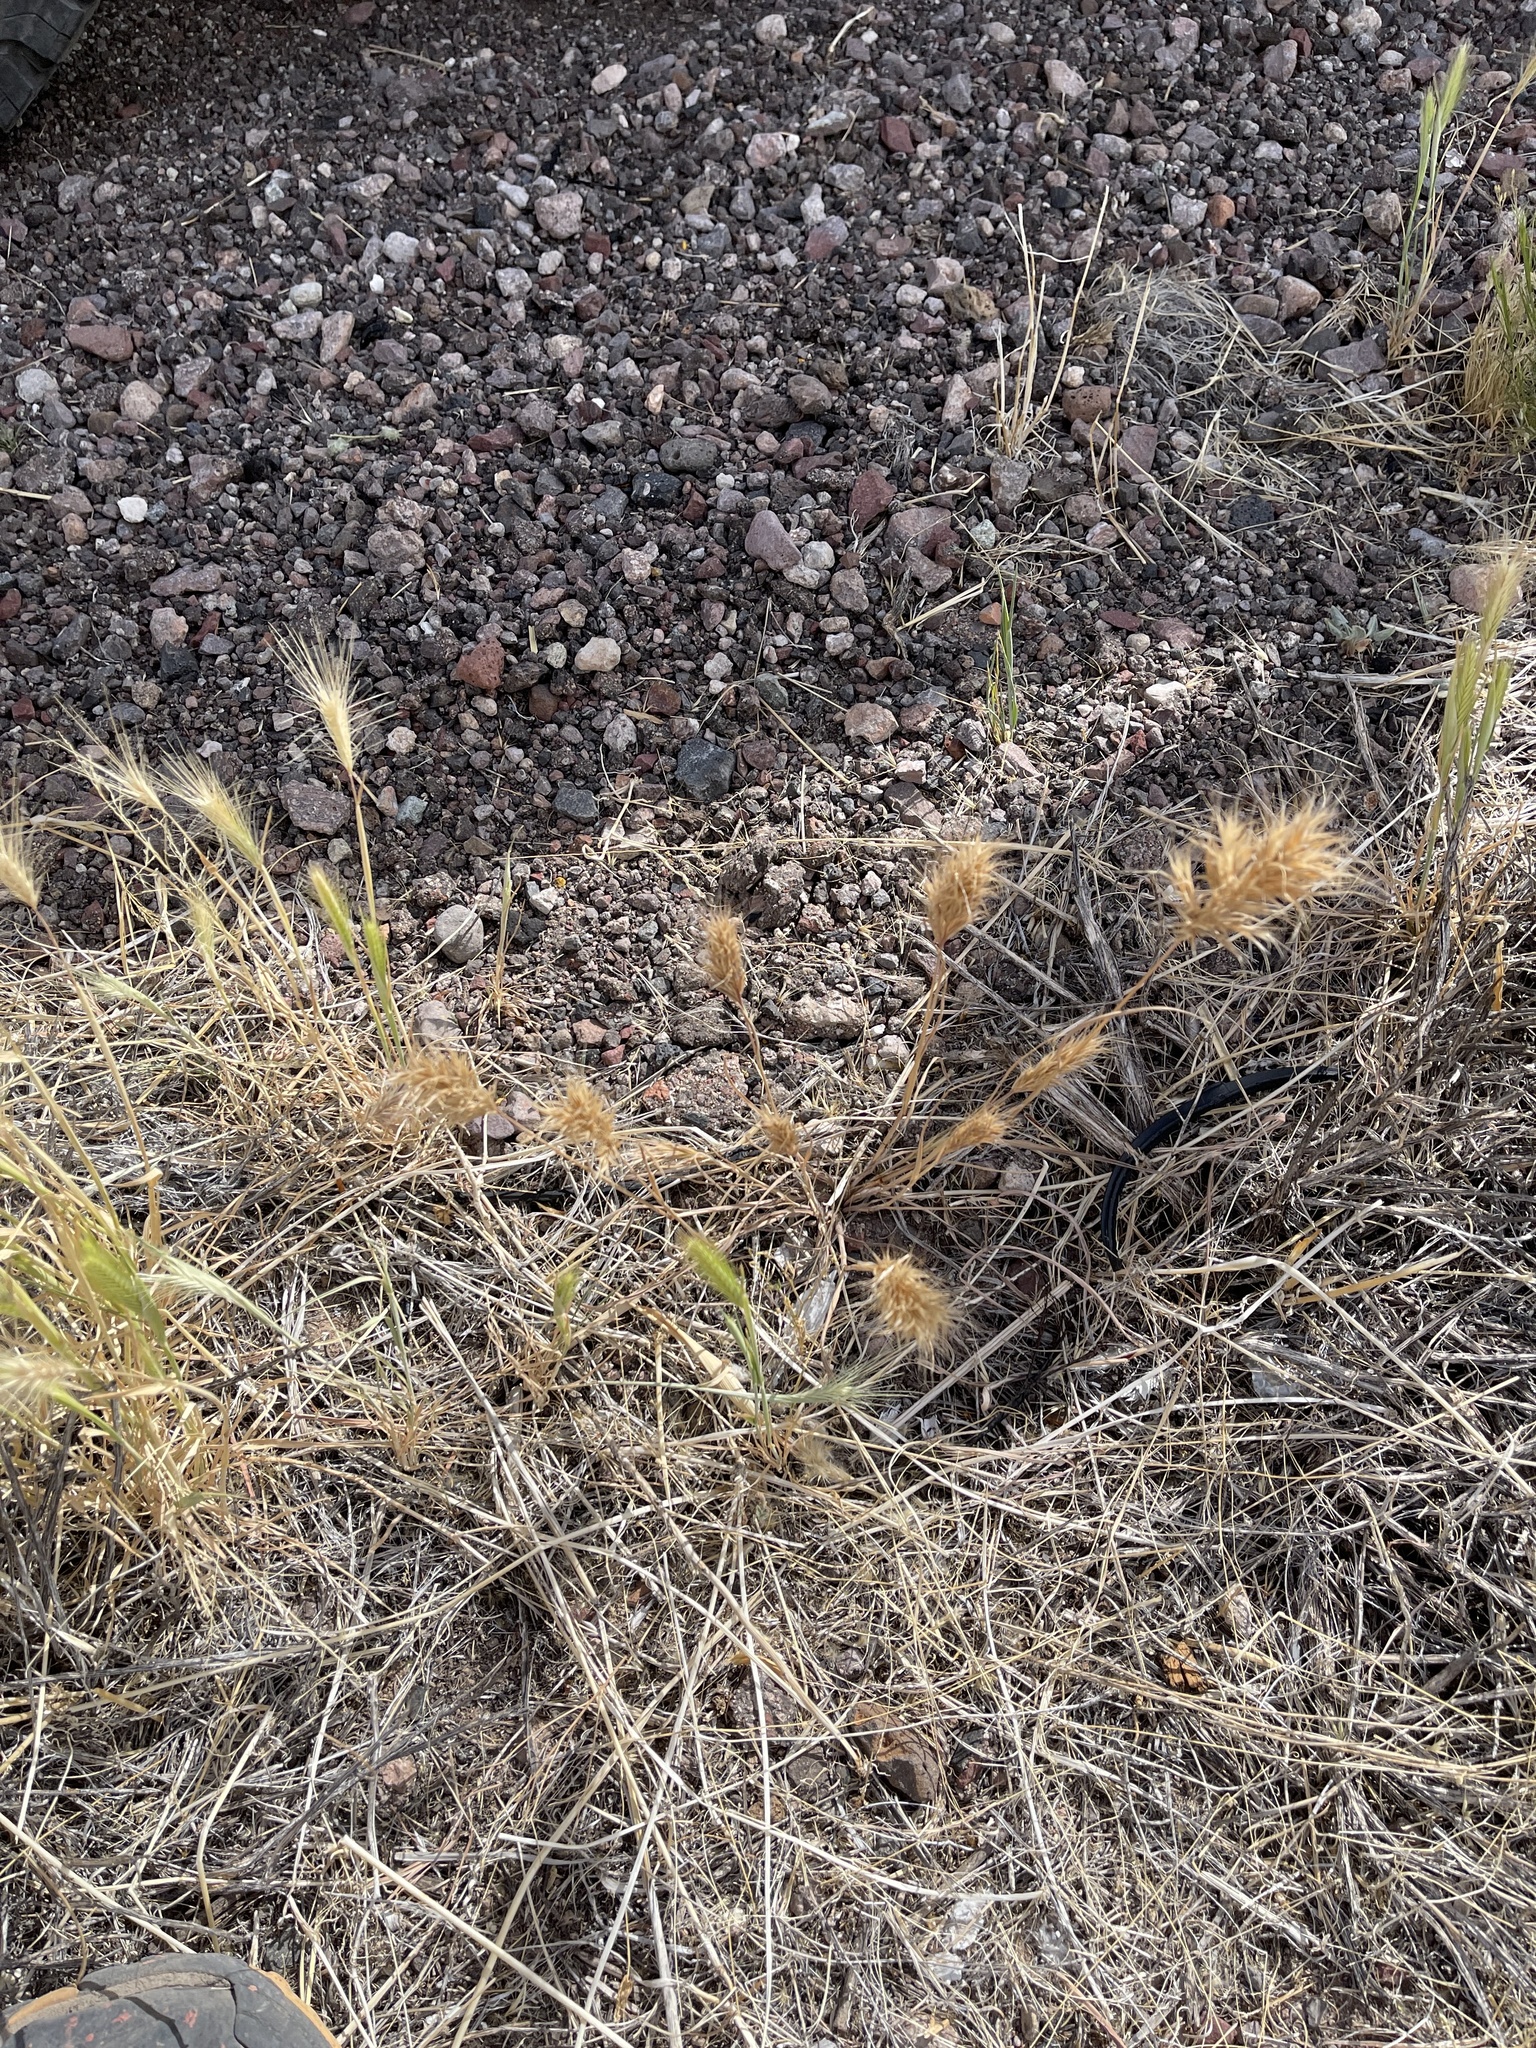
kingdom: Plantae
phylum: Tracheophyta
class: Liliopsida
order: Poales
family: Poaceae
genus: Bromus
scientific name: Bromus rubens
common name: Red brome
